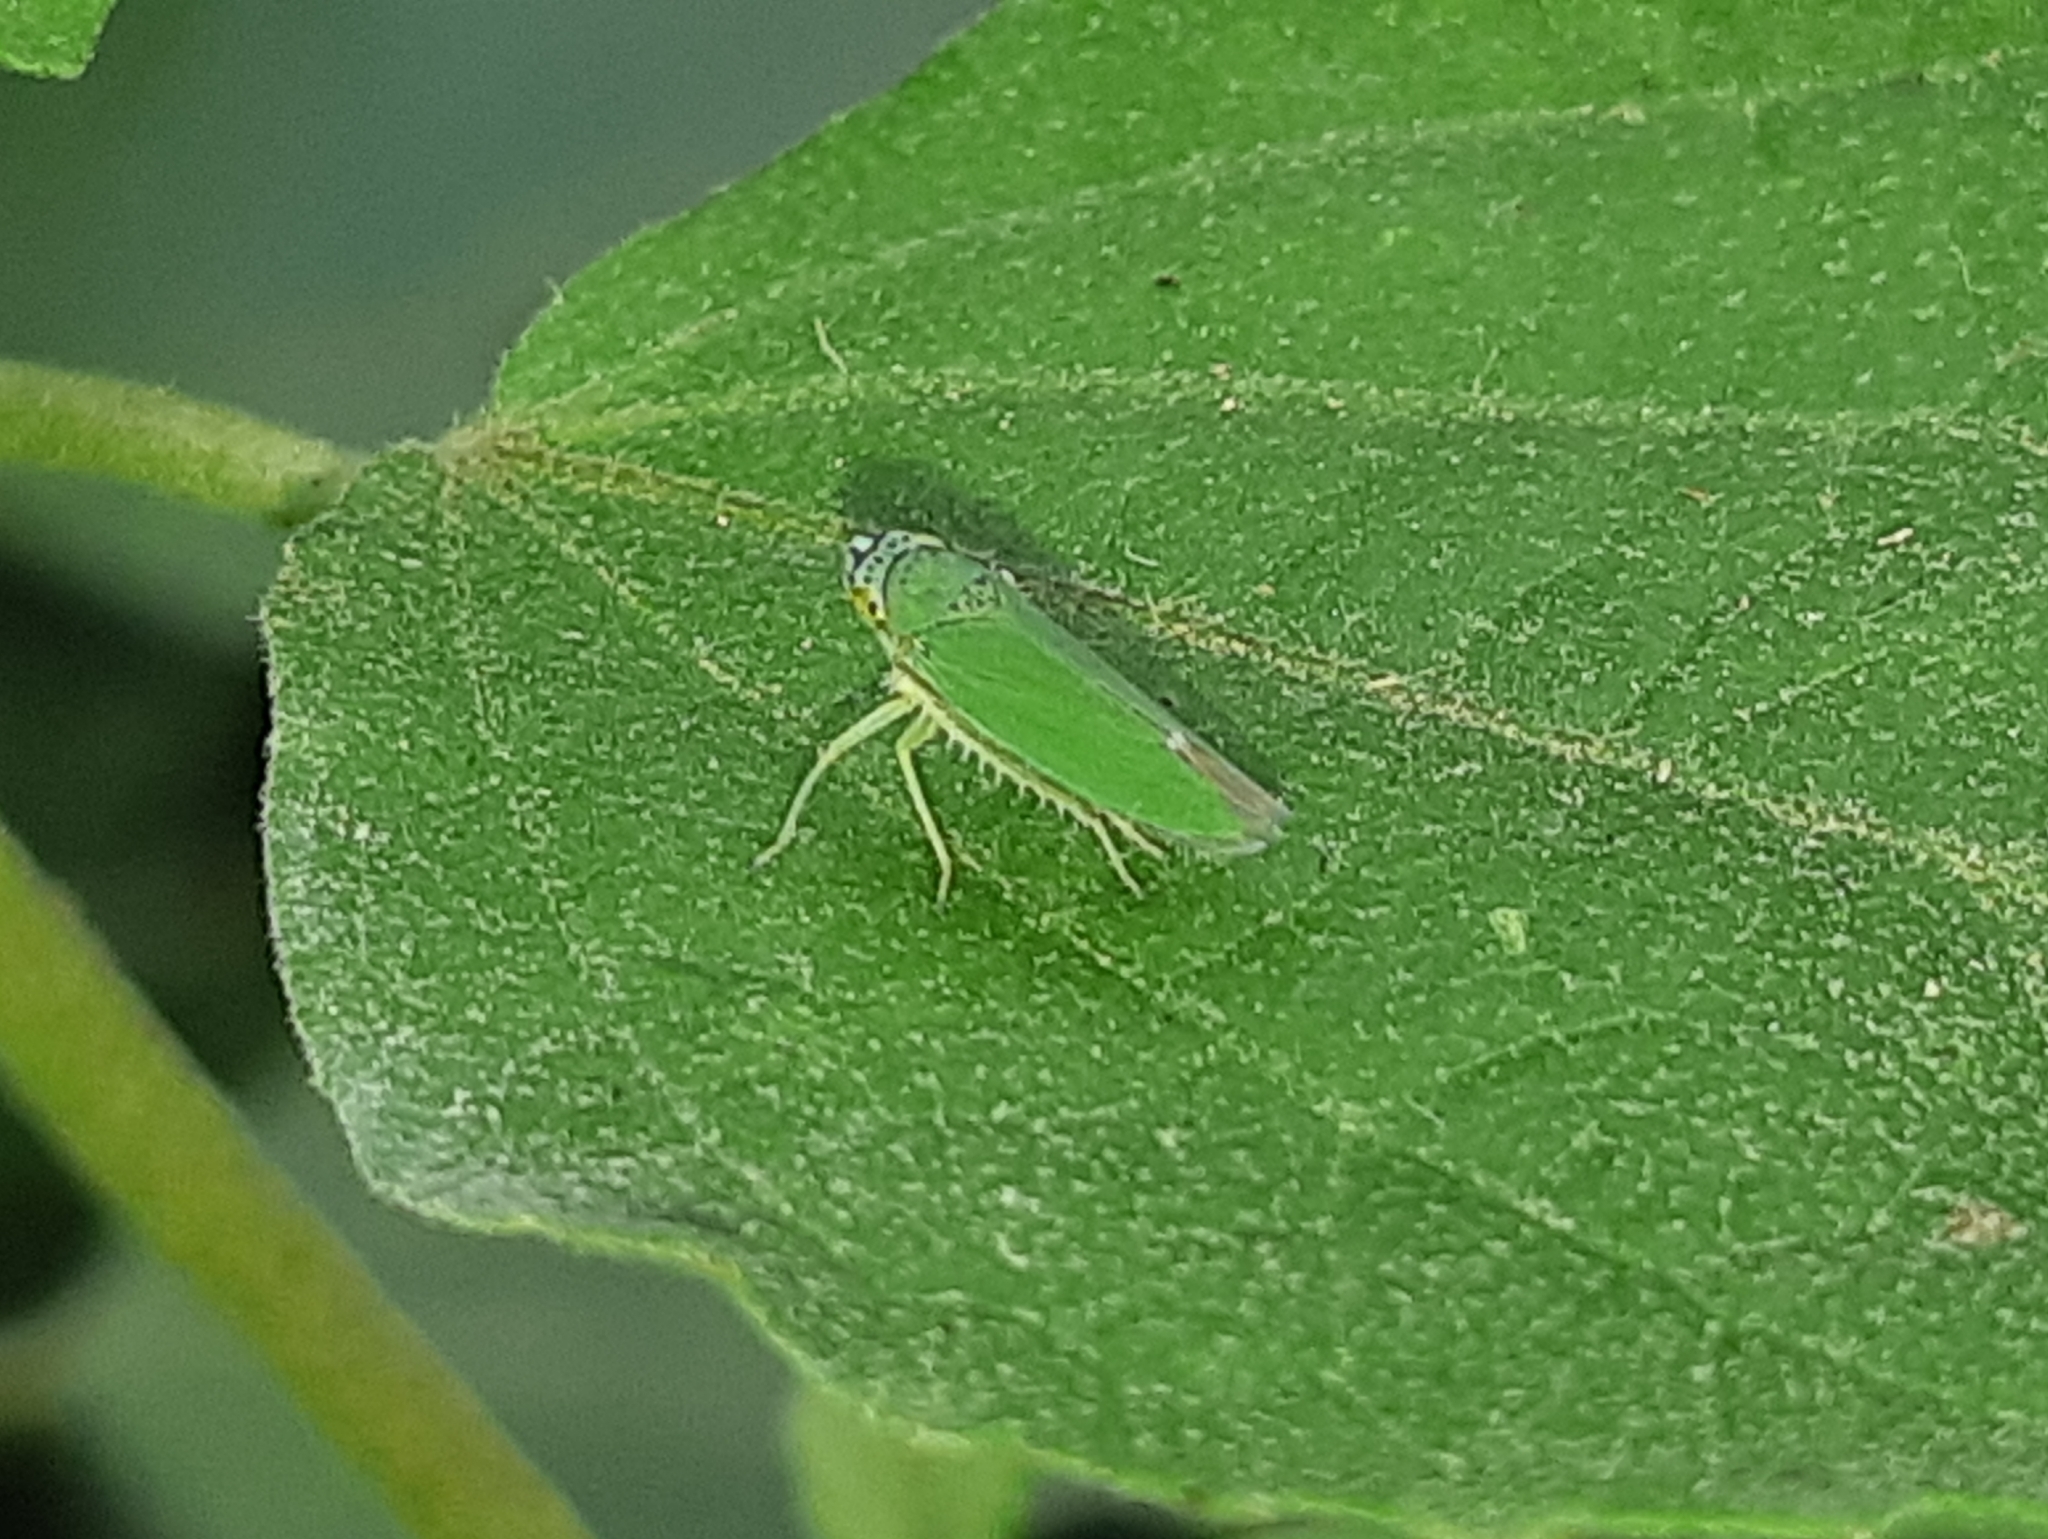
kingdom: Animalia
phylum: Arthropoda
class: Insecta
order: Hemiptera
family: Cicadellidae
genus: Tortigonalia
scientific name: Tortigonalia longicaudata
